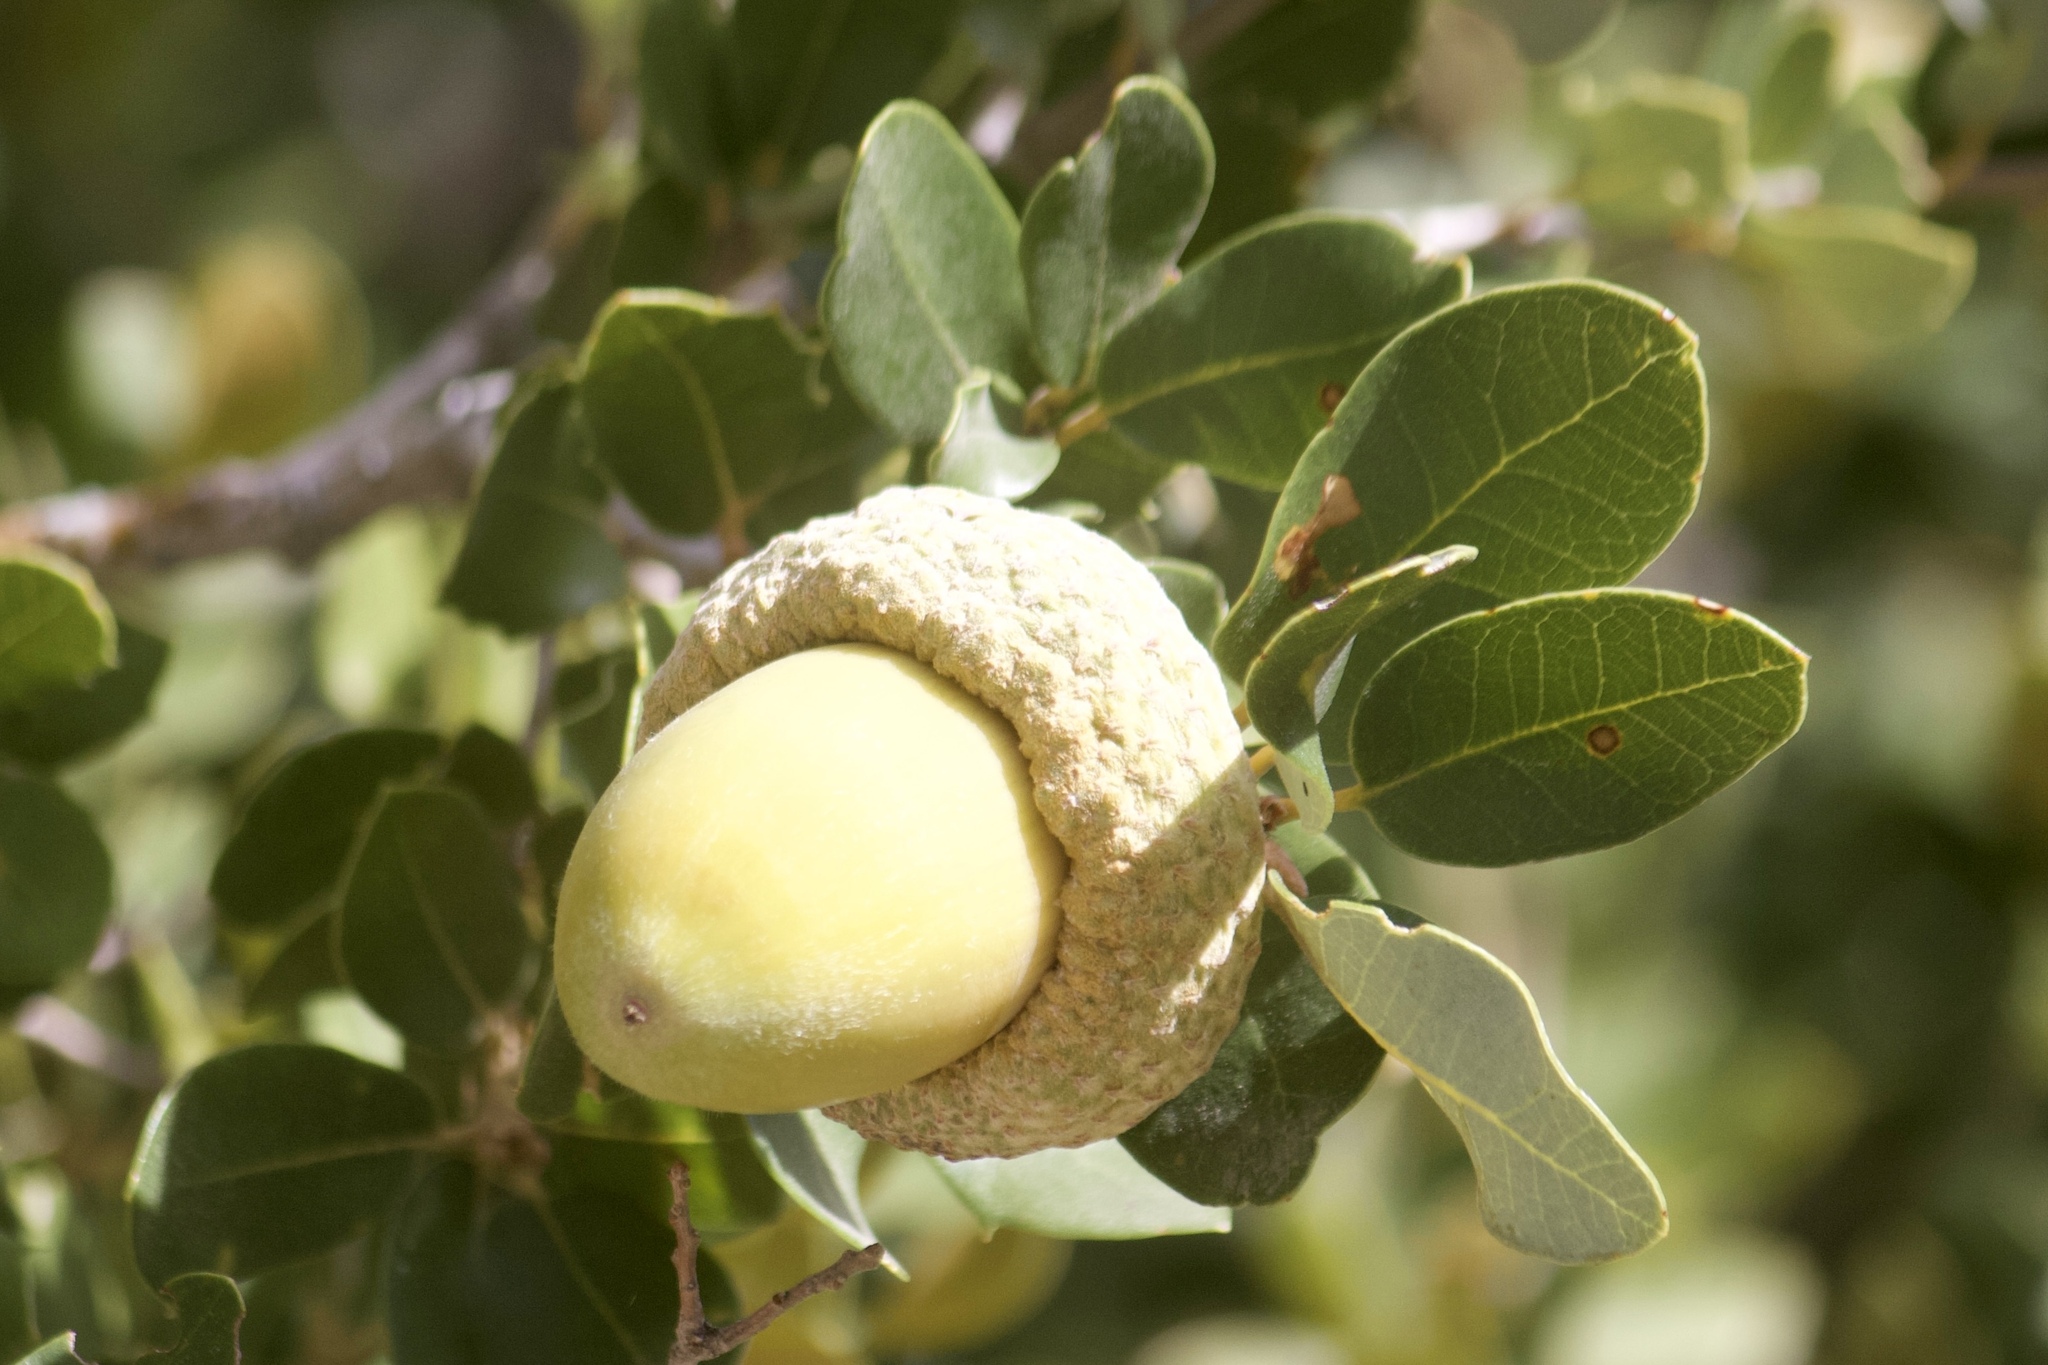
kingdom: Plantae
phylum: Tracheophyta
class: Magnoliopsida
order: Fagales
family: Fagaceae
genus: Quercus
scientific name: Quercus chrysolepis
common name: Canyon live oak
